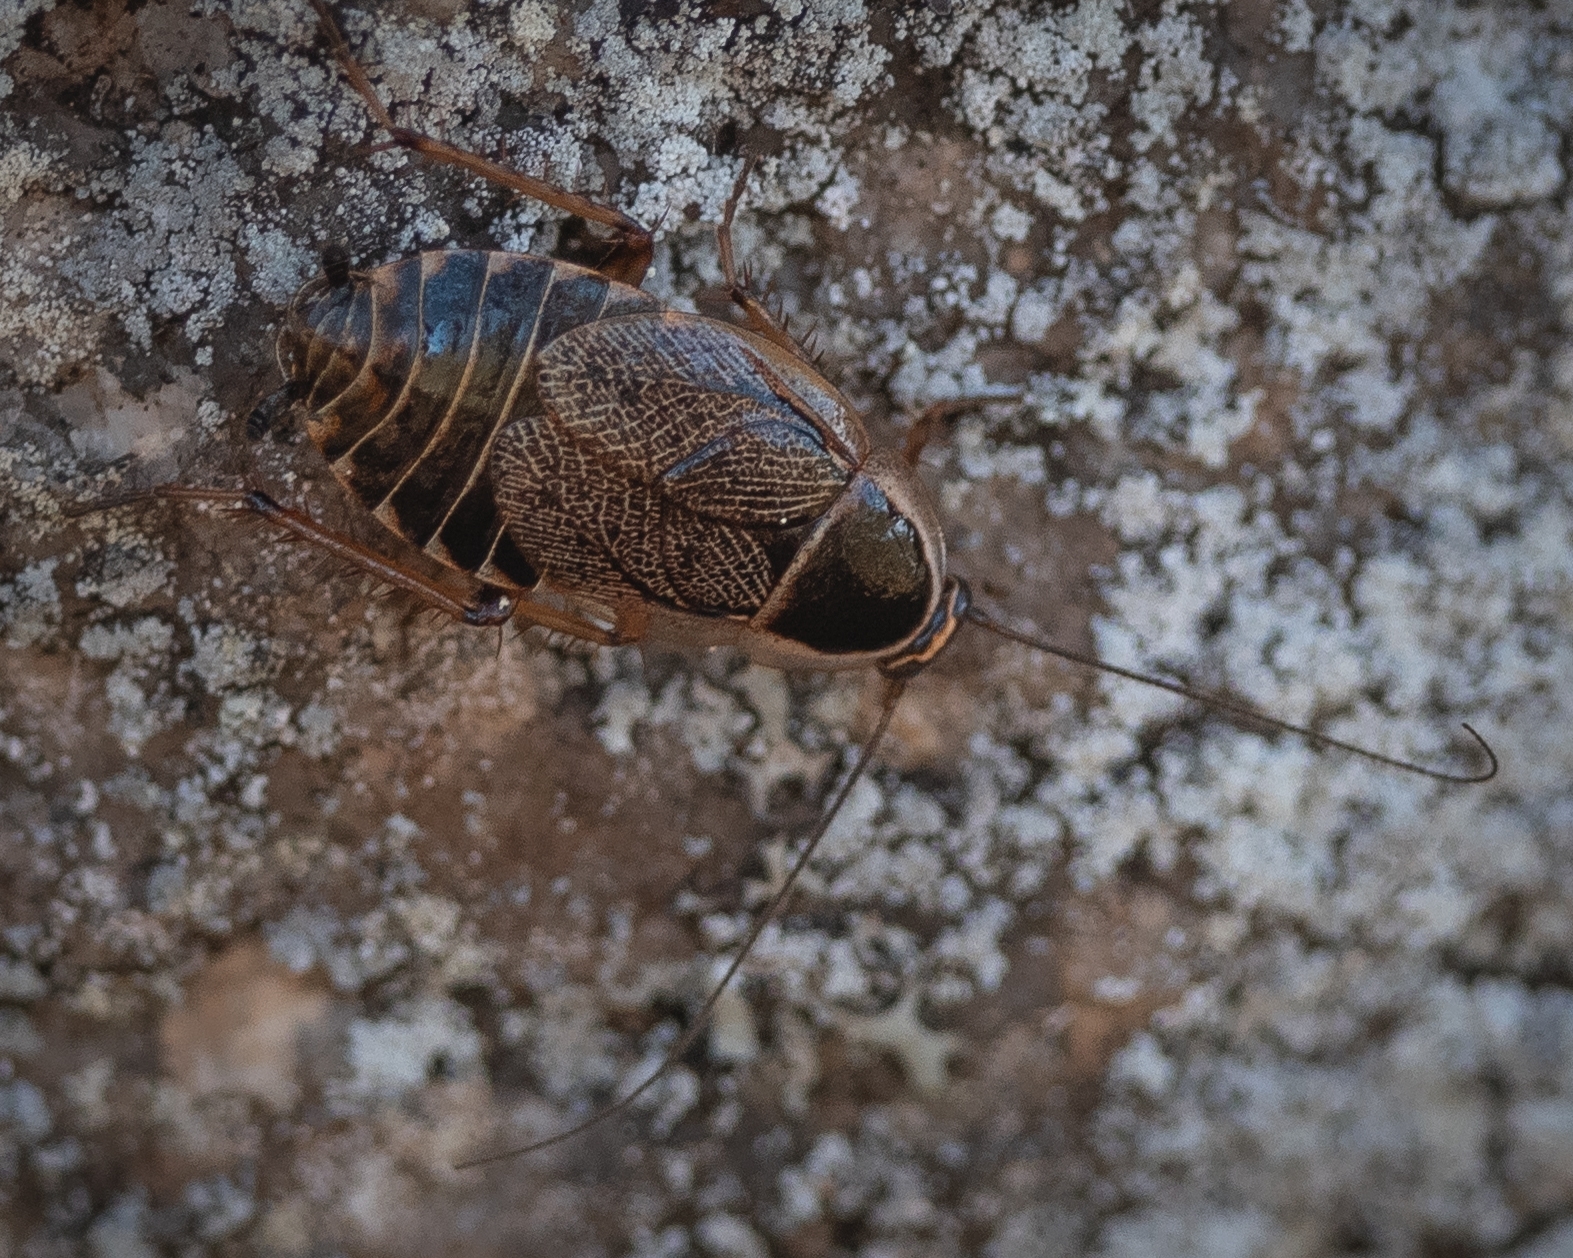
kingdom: Animalia
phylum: Arthropoda
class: Insecta
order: Blattodea
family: Ectobiidae
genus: Ectobius
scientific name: Ectobius sylvestris
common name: Forest cockroach
